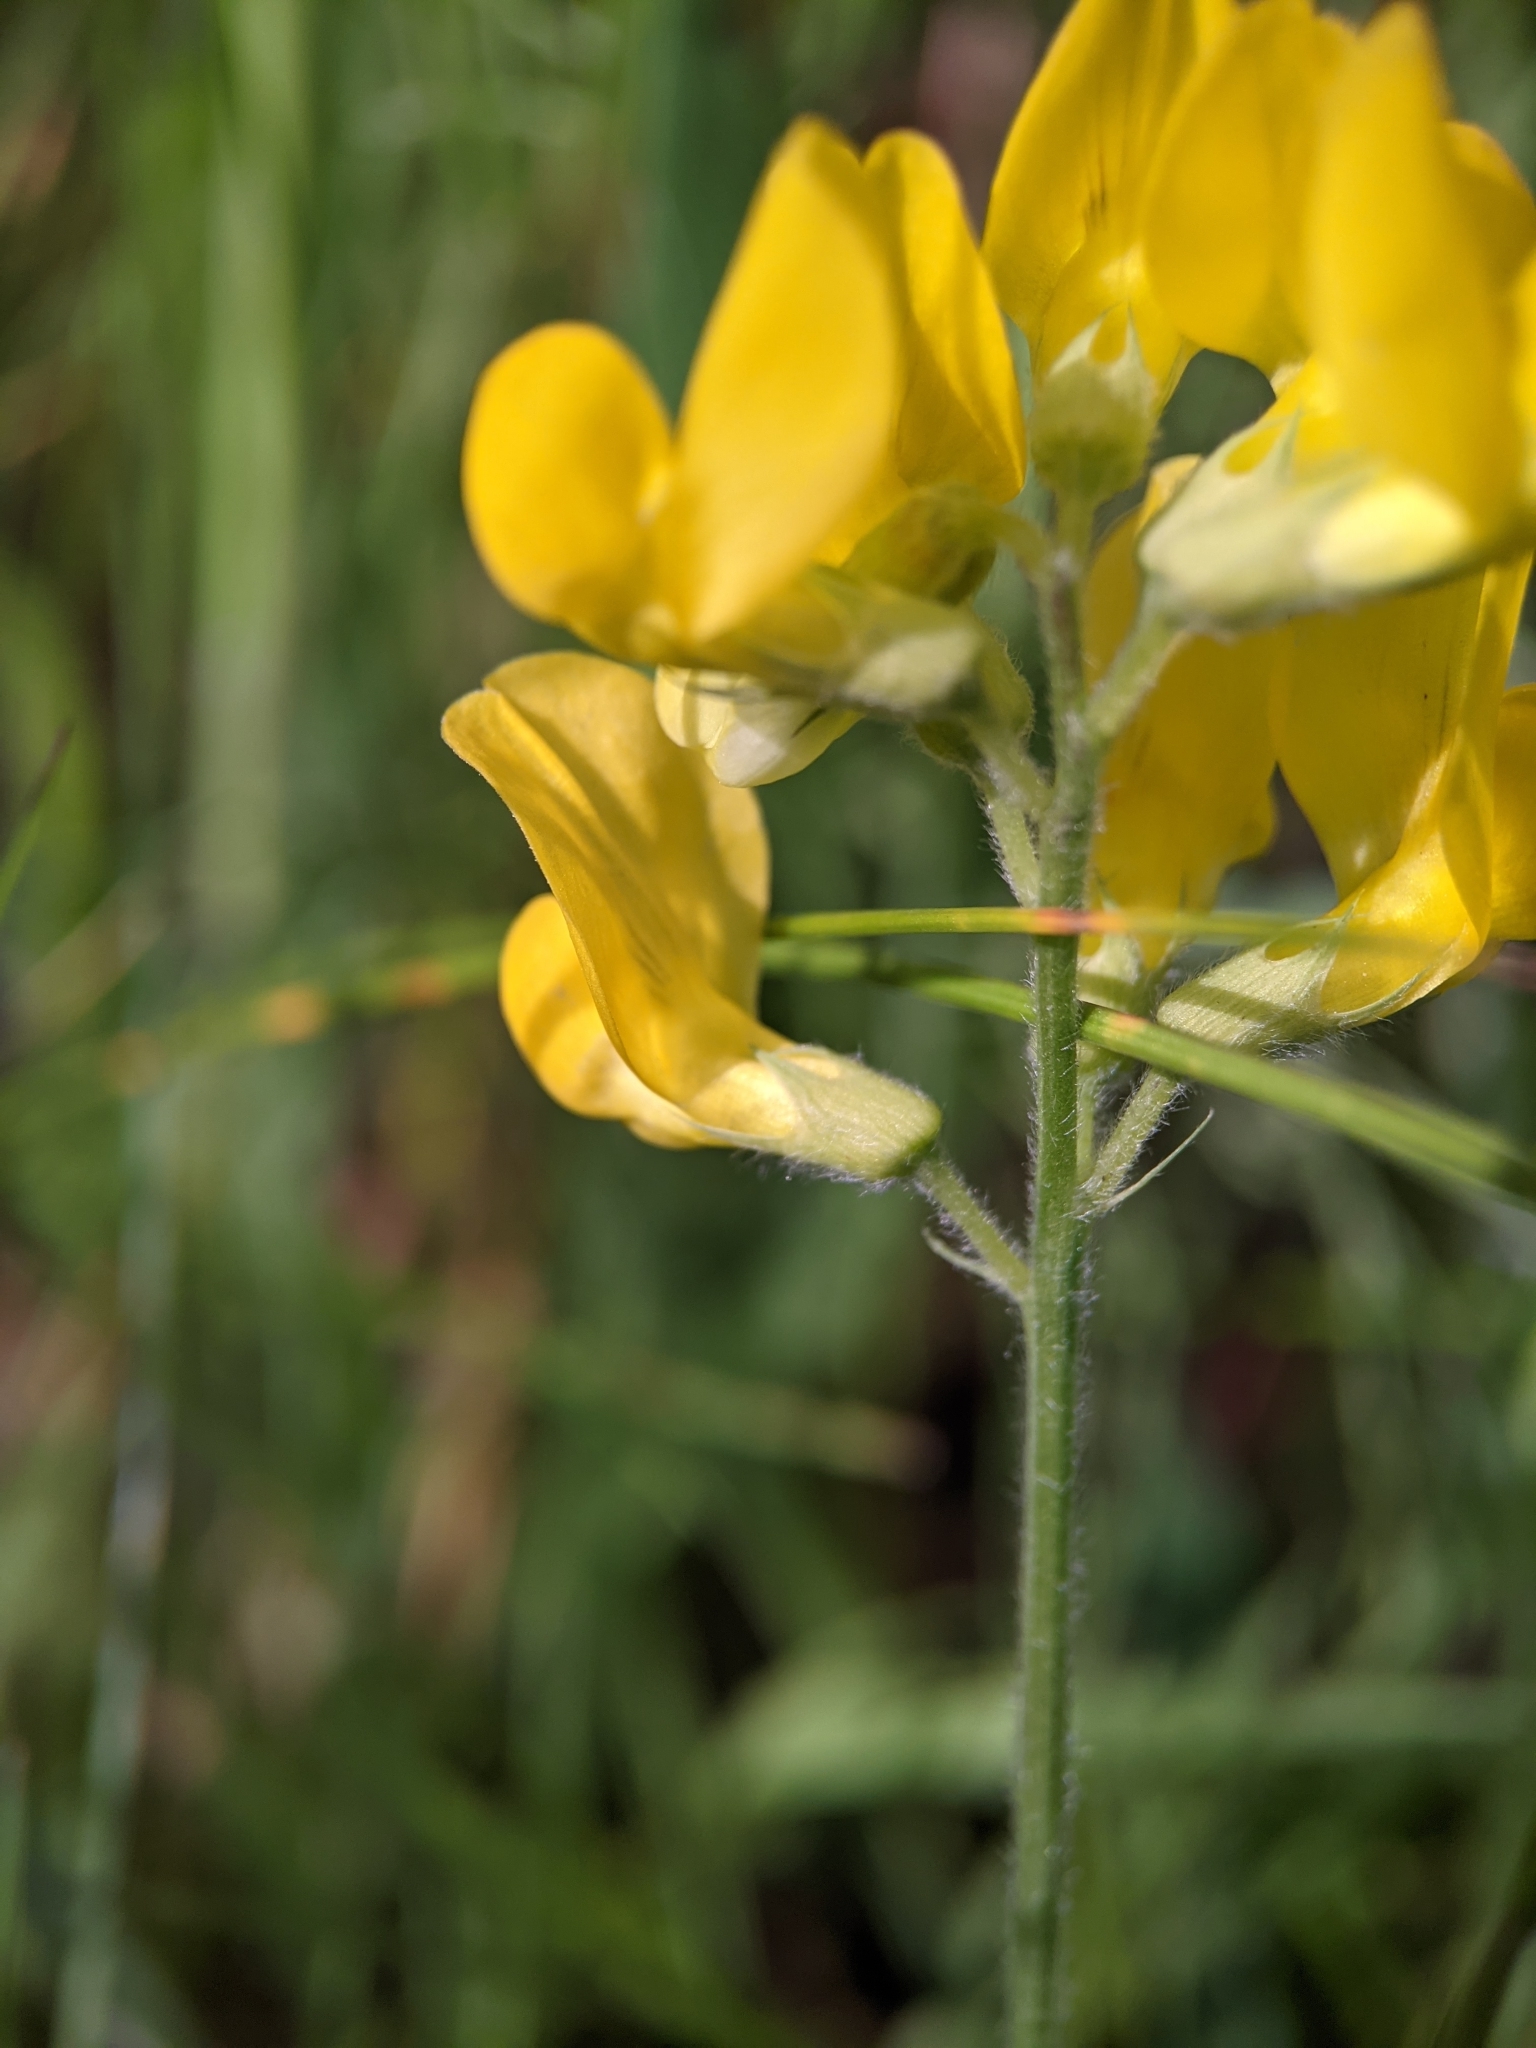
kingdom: Plantae
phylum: Tracheophyta
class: Magnoliopsida
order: Fabales
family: Fabaceae
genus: Lathyrus
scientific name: Lathyrus pratensis
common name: Meadow vetchling
